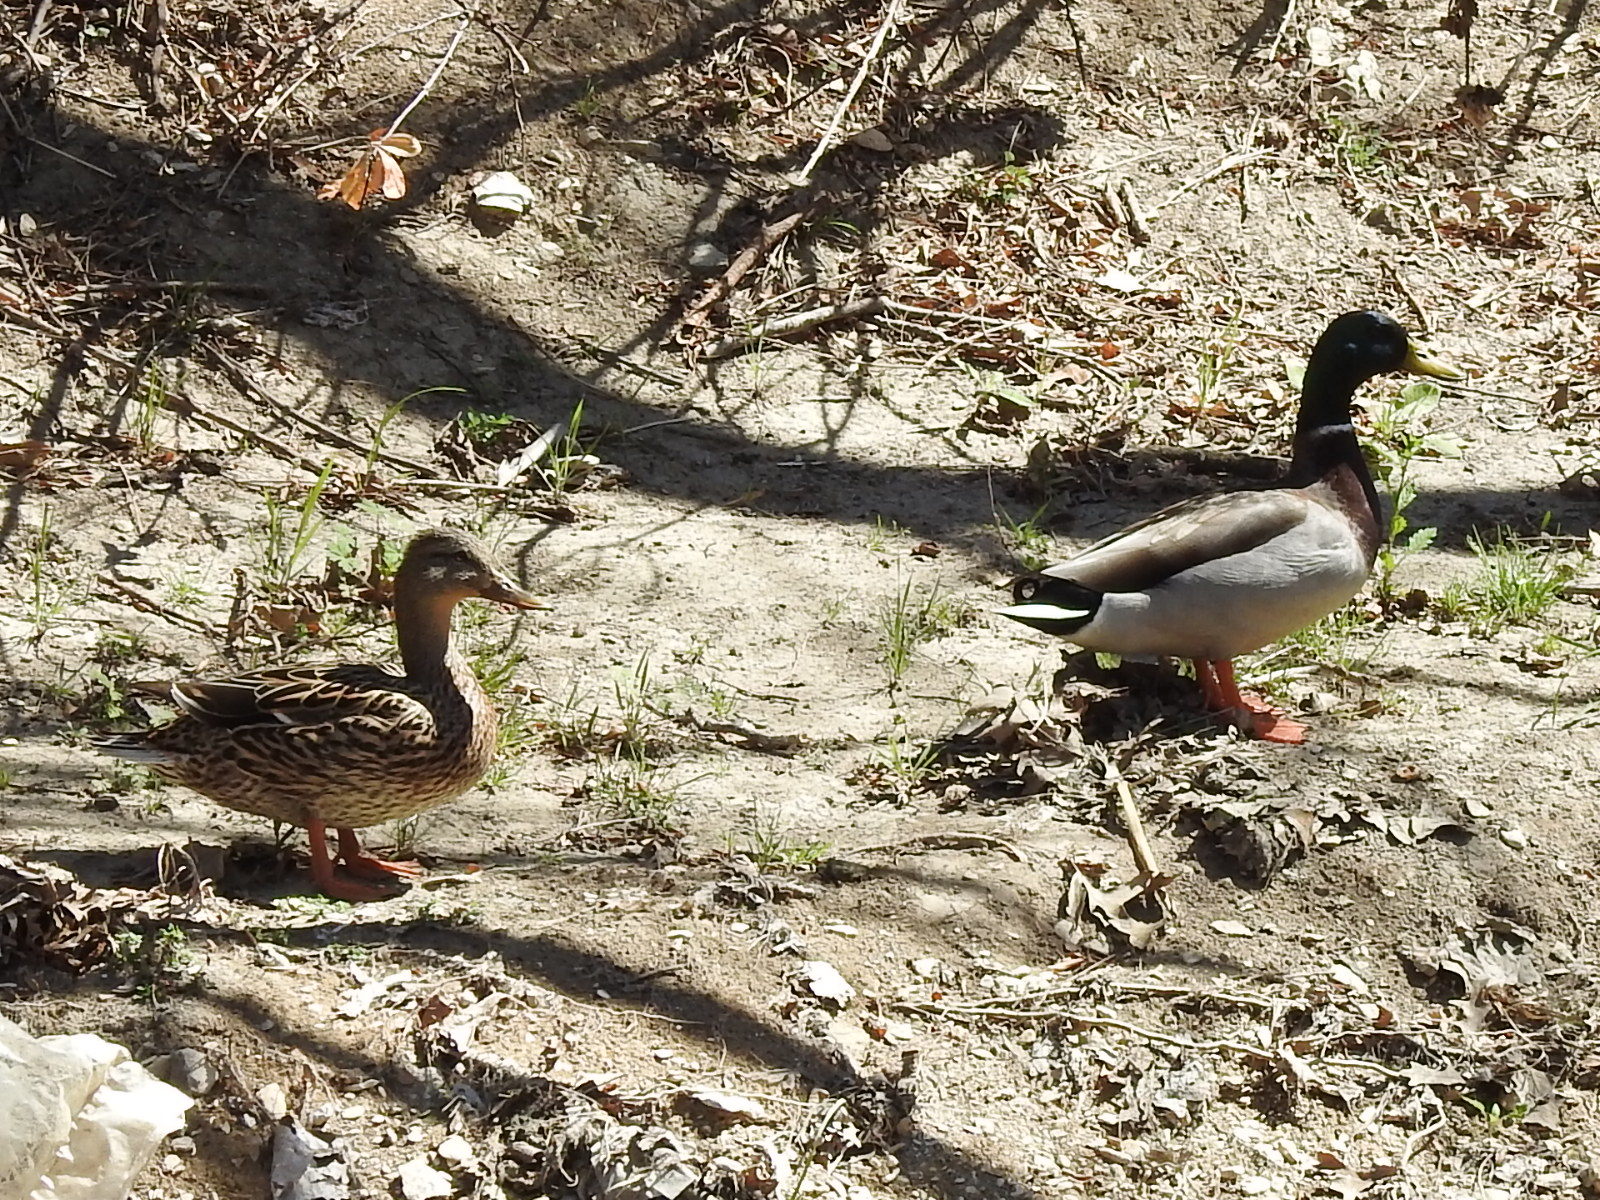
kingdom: Animalia
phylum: Chordata
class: Aves
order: Anseriformes
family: Anatidae
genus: Anas
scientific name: Anas platyrhynchos
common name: Mallard
